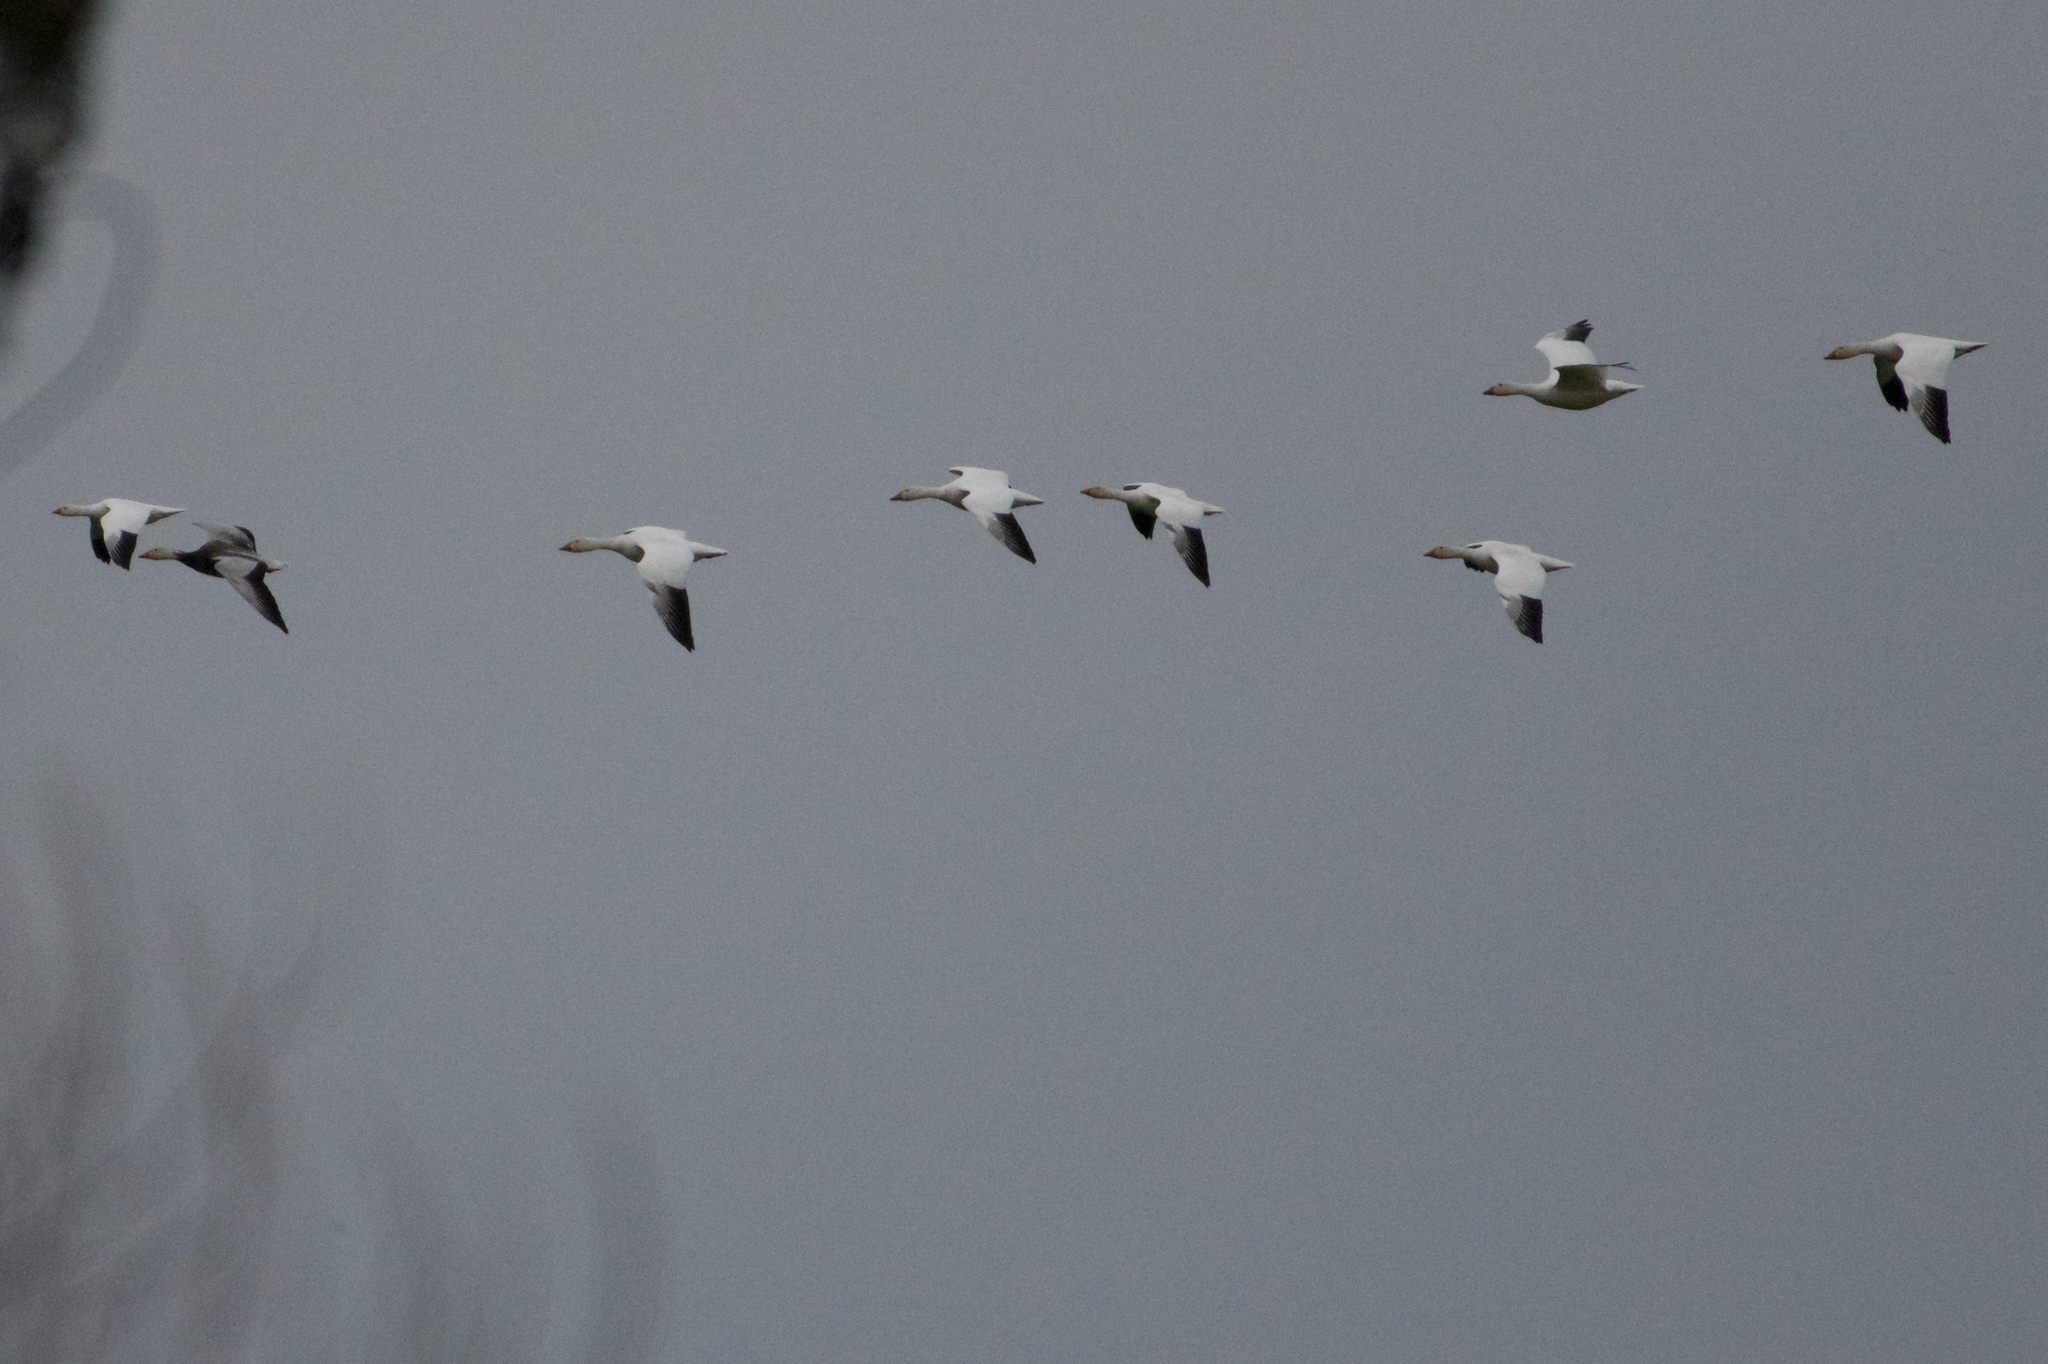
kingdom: Animalia
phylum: Chordata
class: Aves
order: Anseriformes
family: Anatidae
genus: Anser
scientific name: Anser caerulescens
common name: Snow goose
